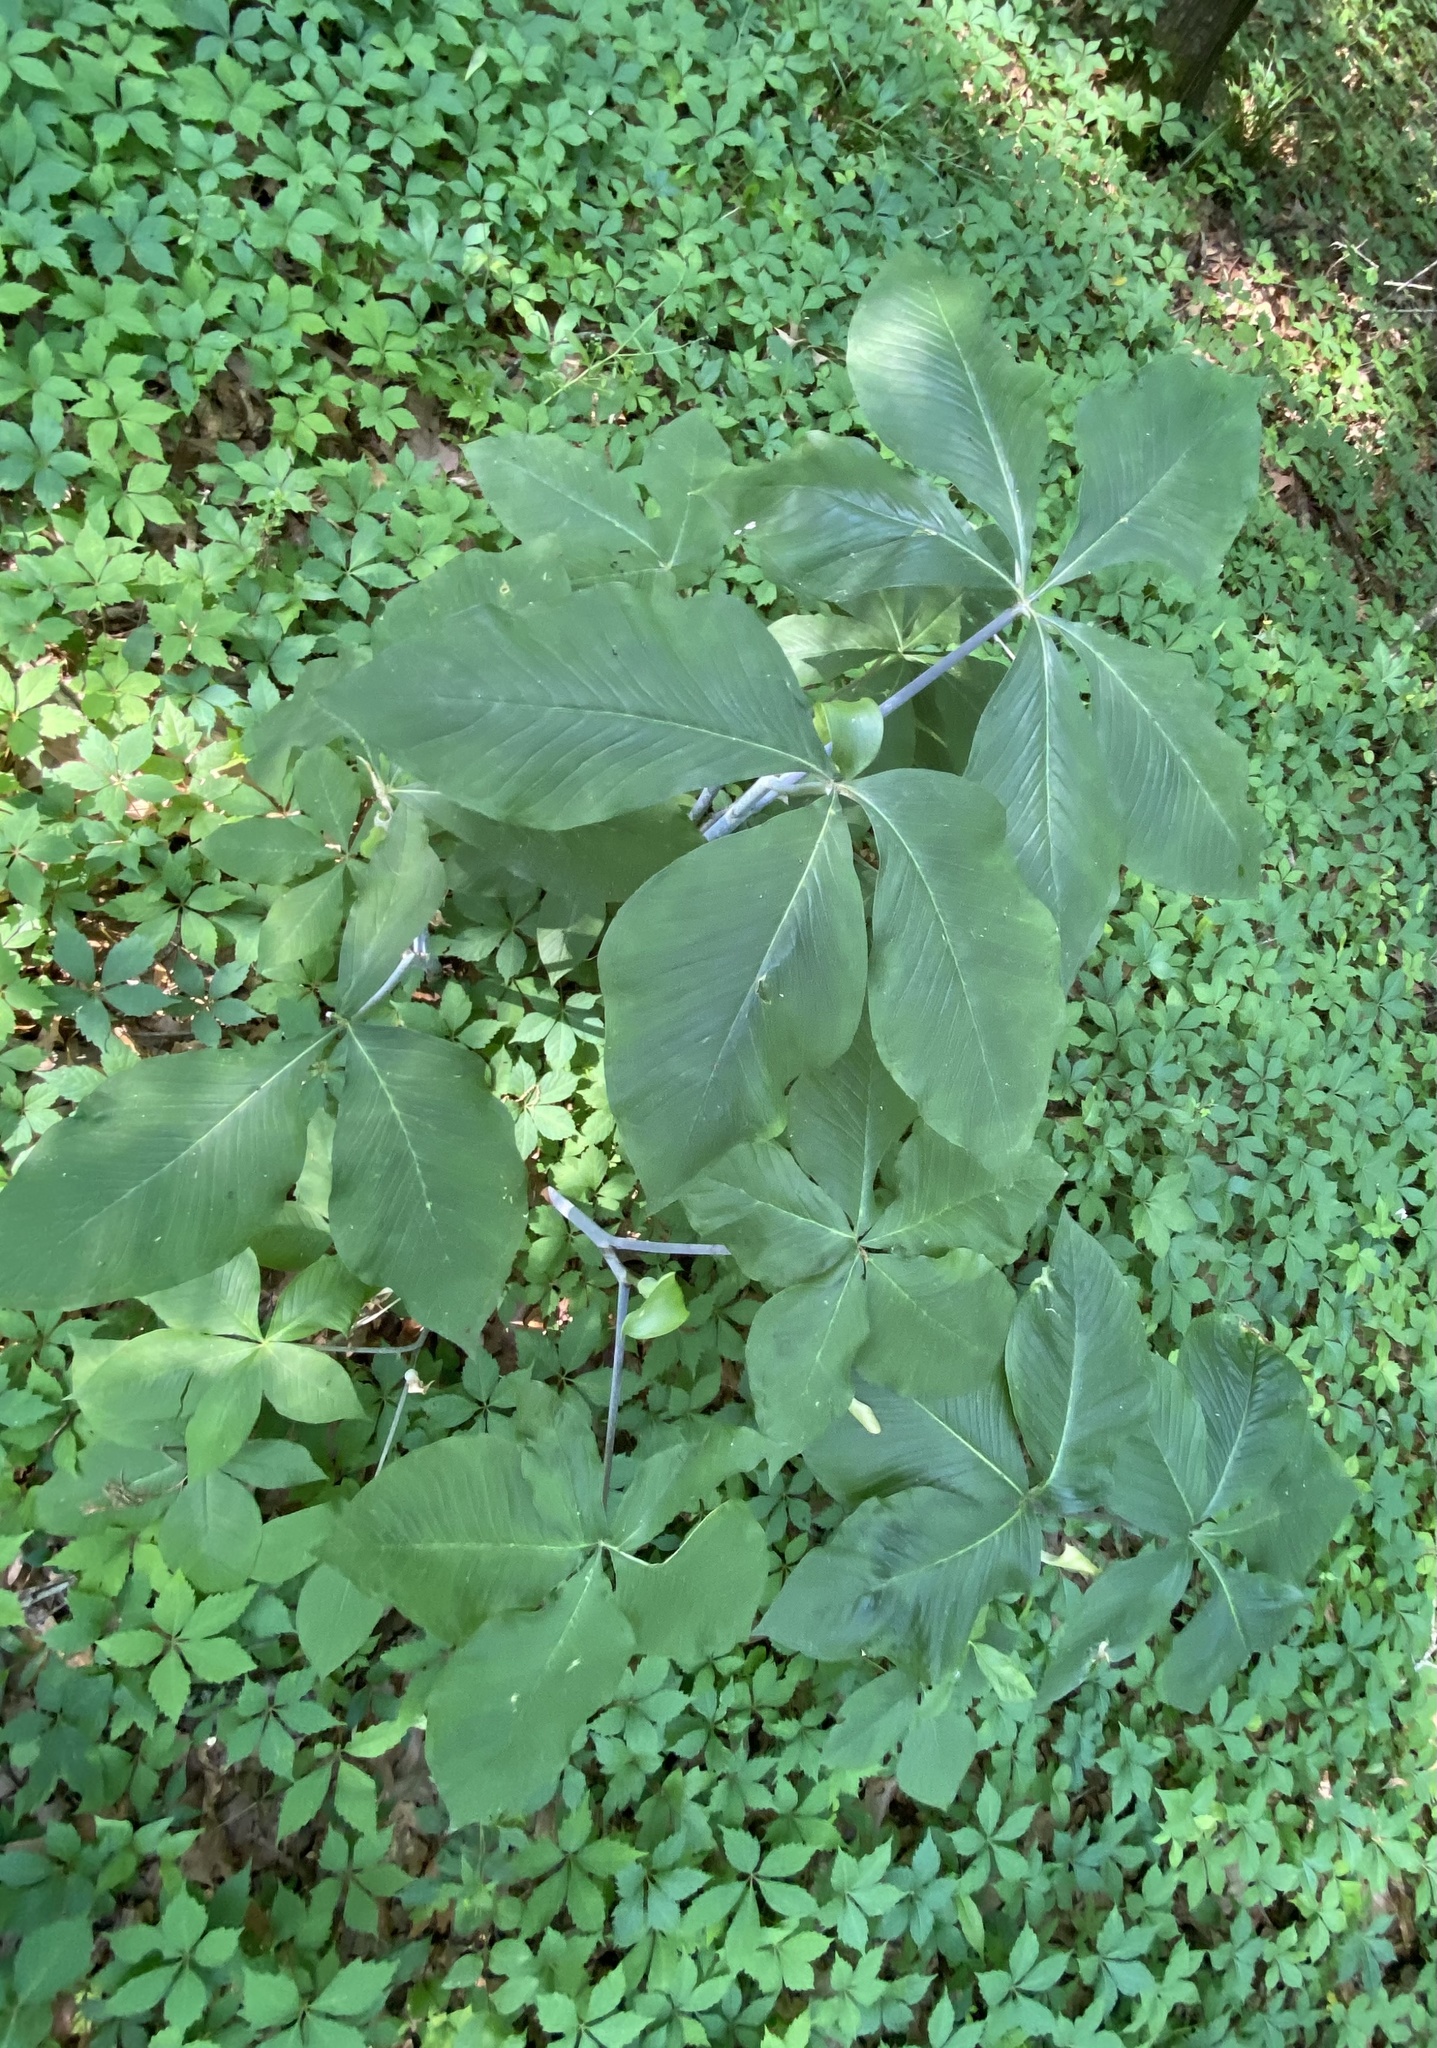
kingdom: Plantae
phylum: Tracheophyta
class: Liliopsida
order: Alismatales
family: Araceae
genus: Arisaema
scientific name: Arisaema quinatum
